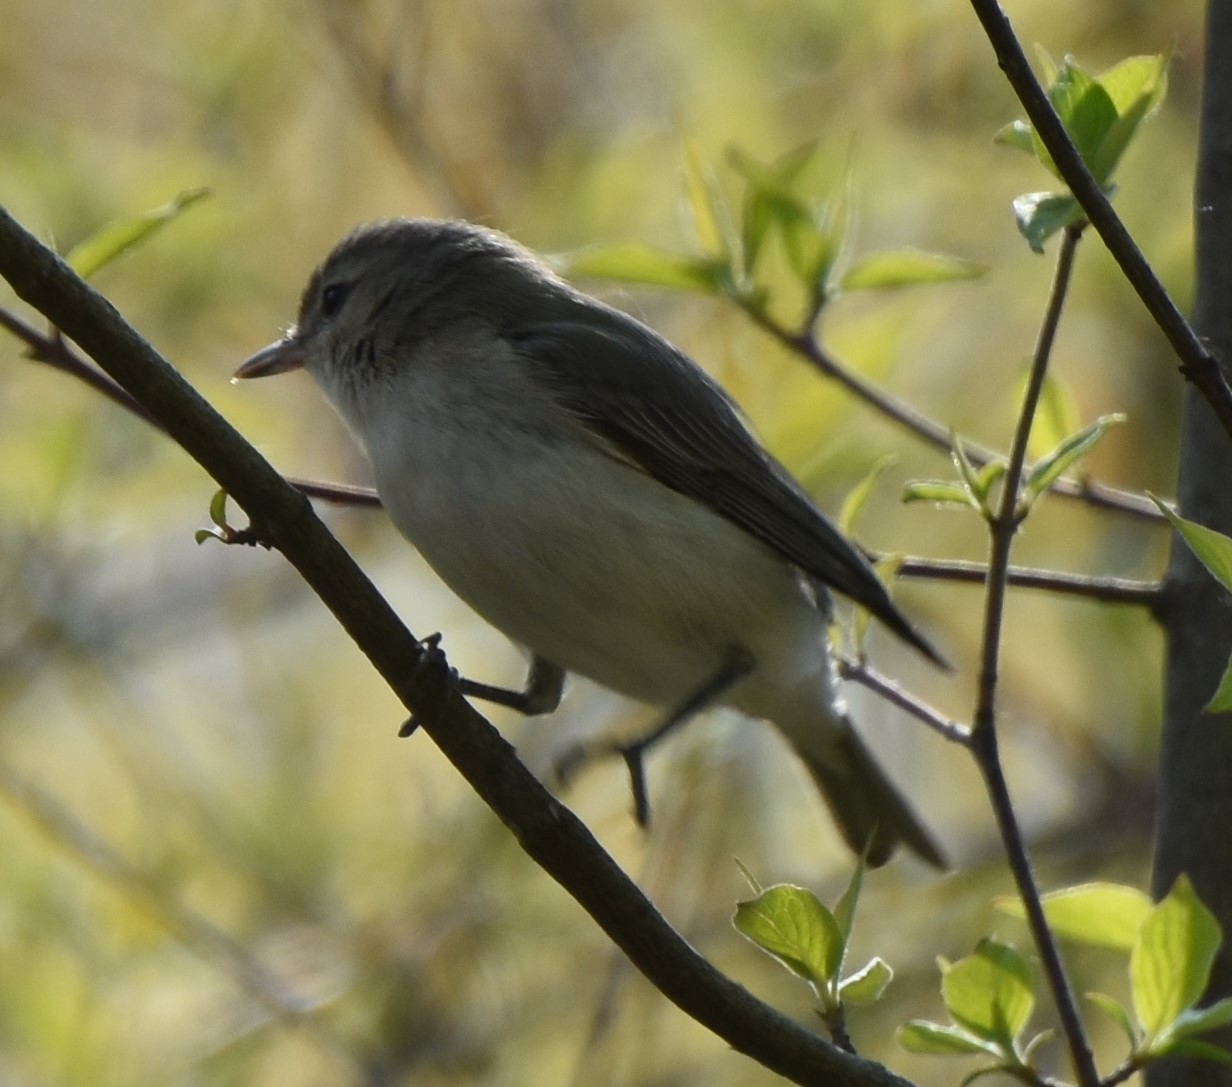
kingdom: Animalia
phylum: Chordata
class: Aves
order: Passeriformes
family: Vireonidae
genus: Vireo
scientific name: Vireo gilvus
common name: Warbling vireo
